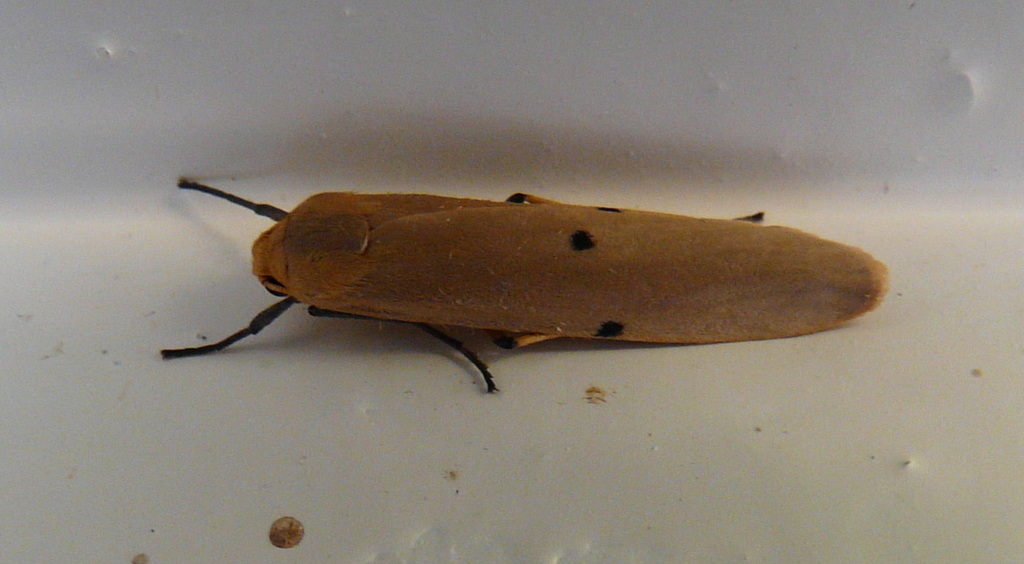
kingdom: Animalia
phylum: Arthropoda
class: Insecta
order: Lepidoptera
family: Erebidae
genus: Zobida
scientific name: Zobida similipuncta
